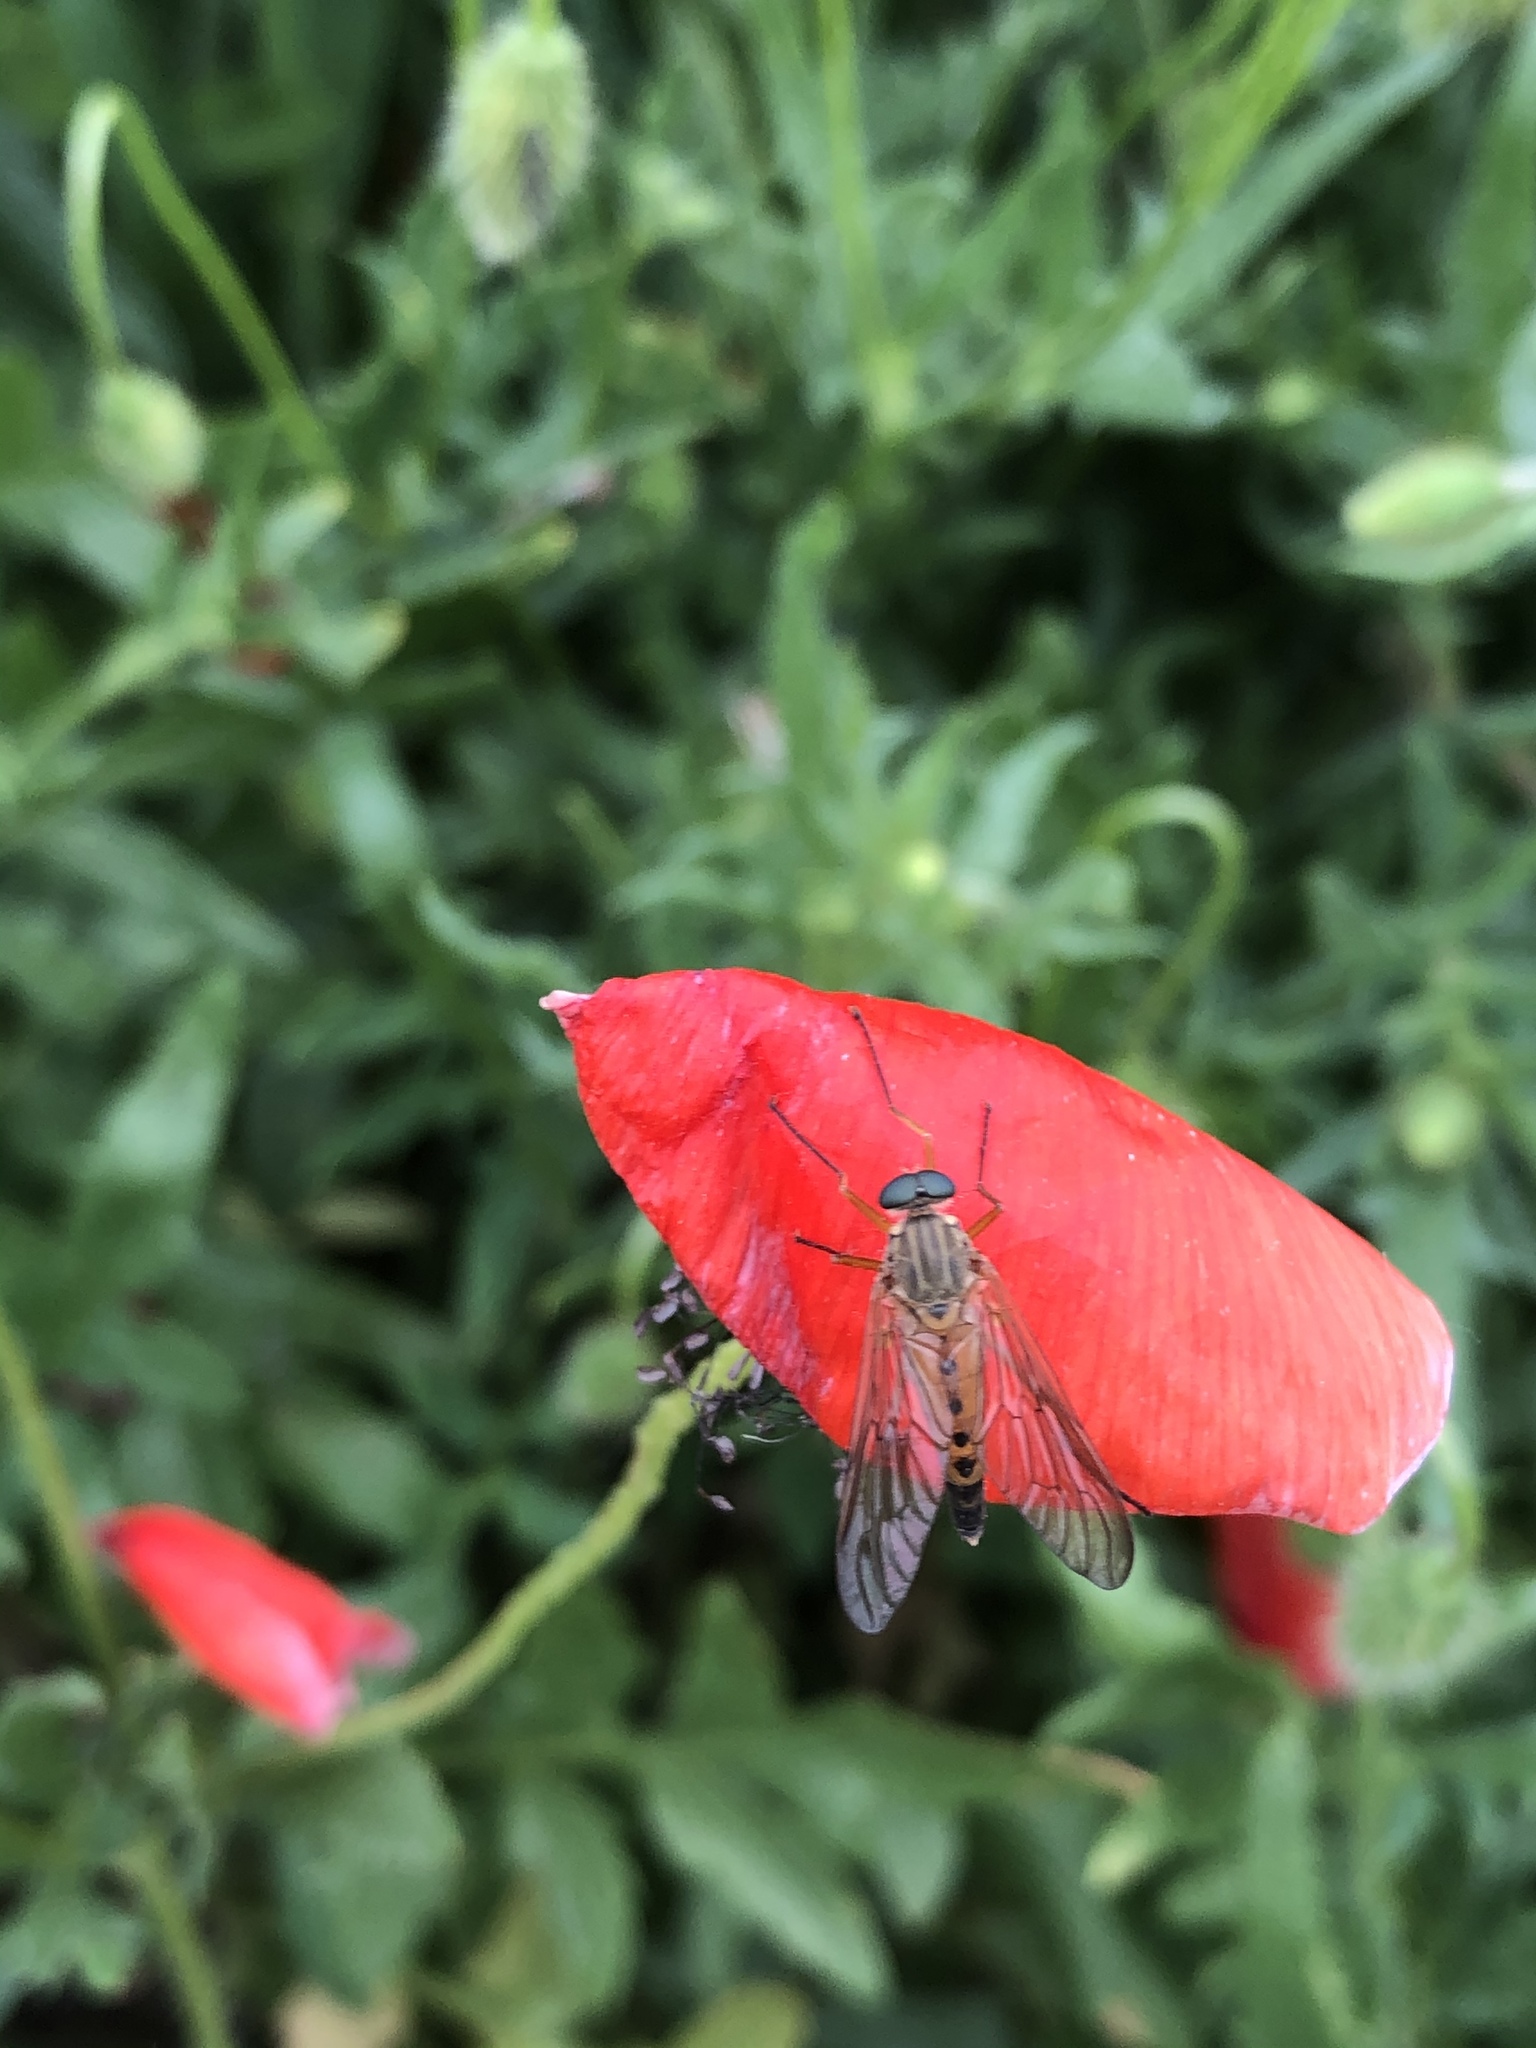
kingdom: Animalia
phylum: Arthropoda
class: Insecta
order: Diptera
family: Rhagionidae
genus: Rhagio
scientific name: Rhagio tringaria
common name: Marsh snipefly
